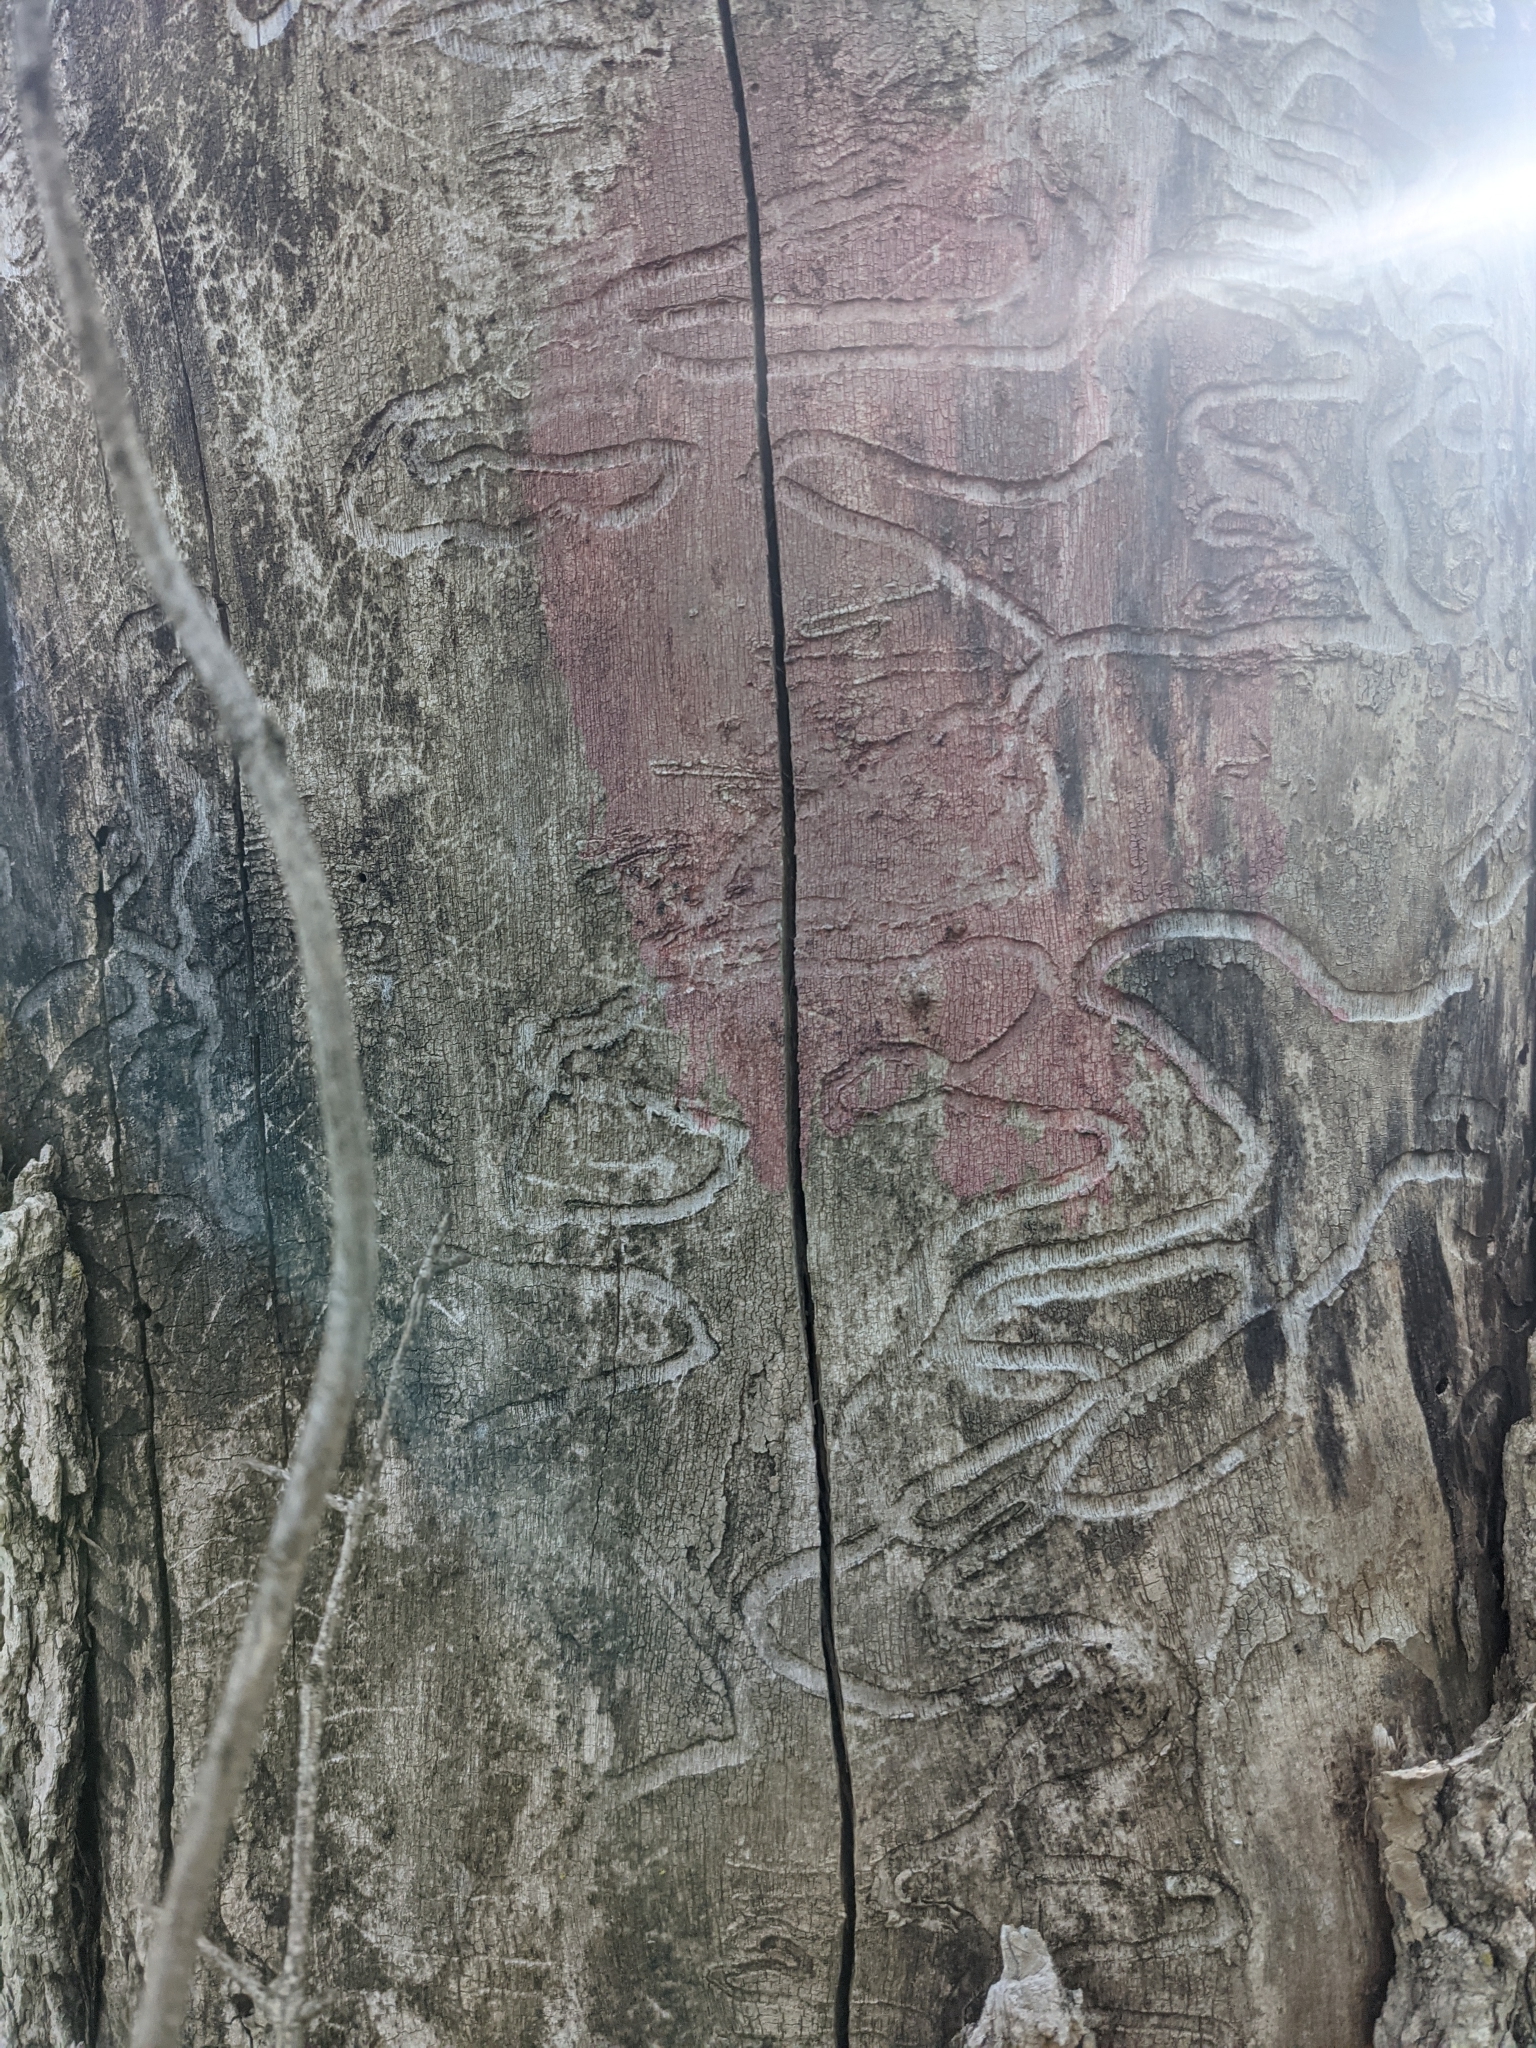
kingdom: Animalia
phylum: Arthropoda
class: Insecta
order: Coleoptera
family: Buprestidae
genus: Agrilus
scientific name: Agrilus planipennis
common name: Emerald ash borer
